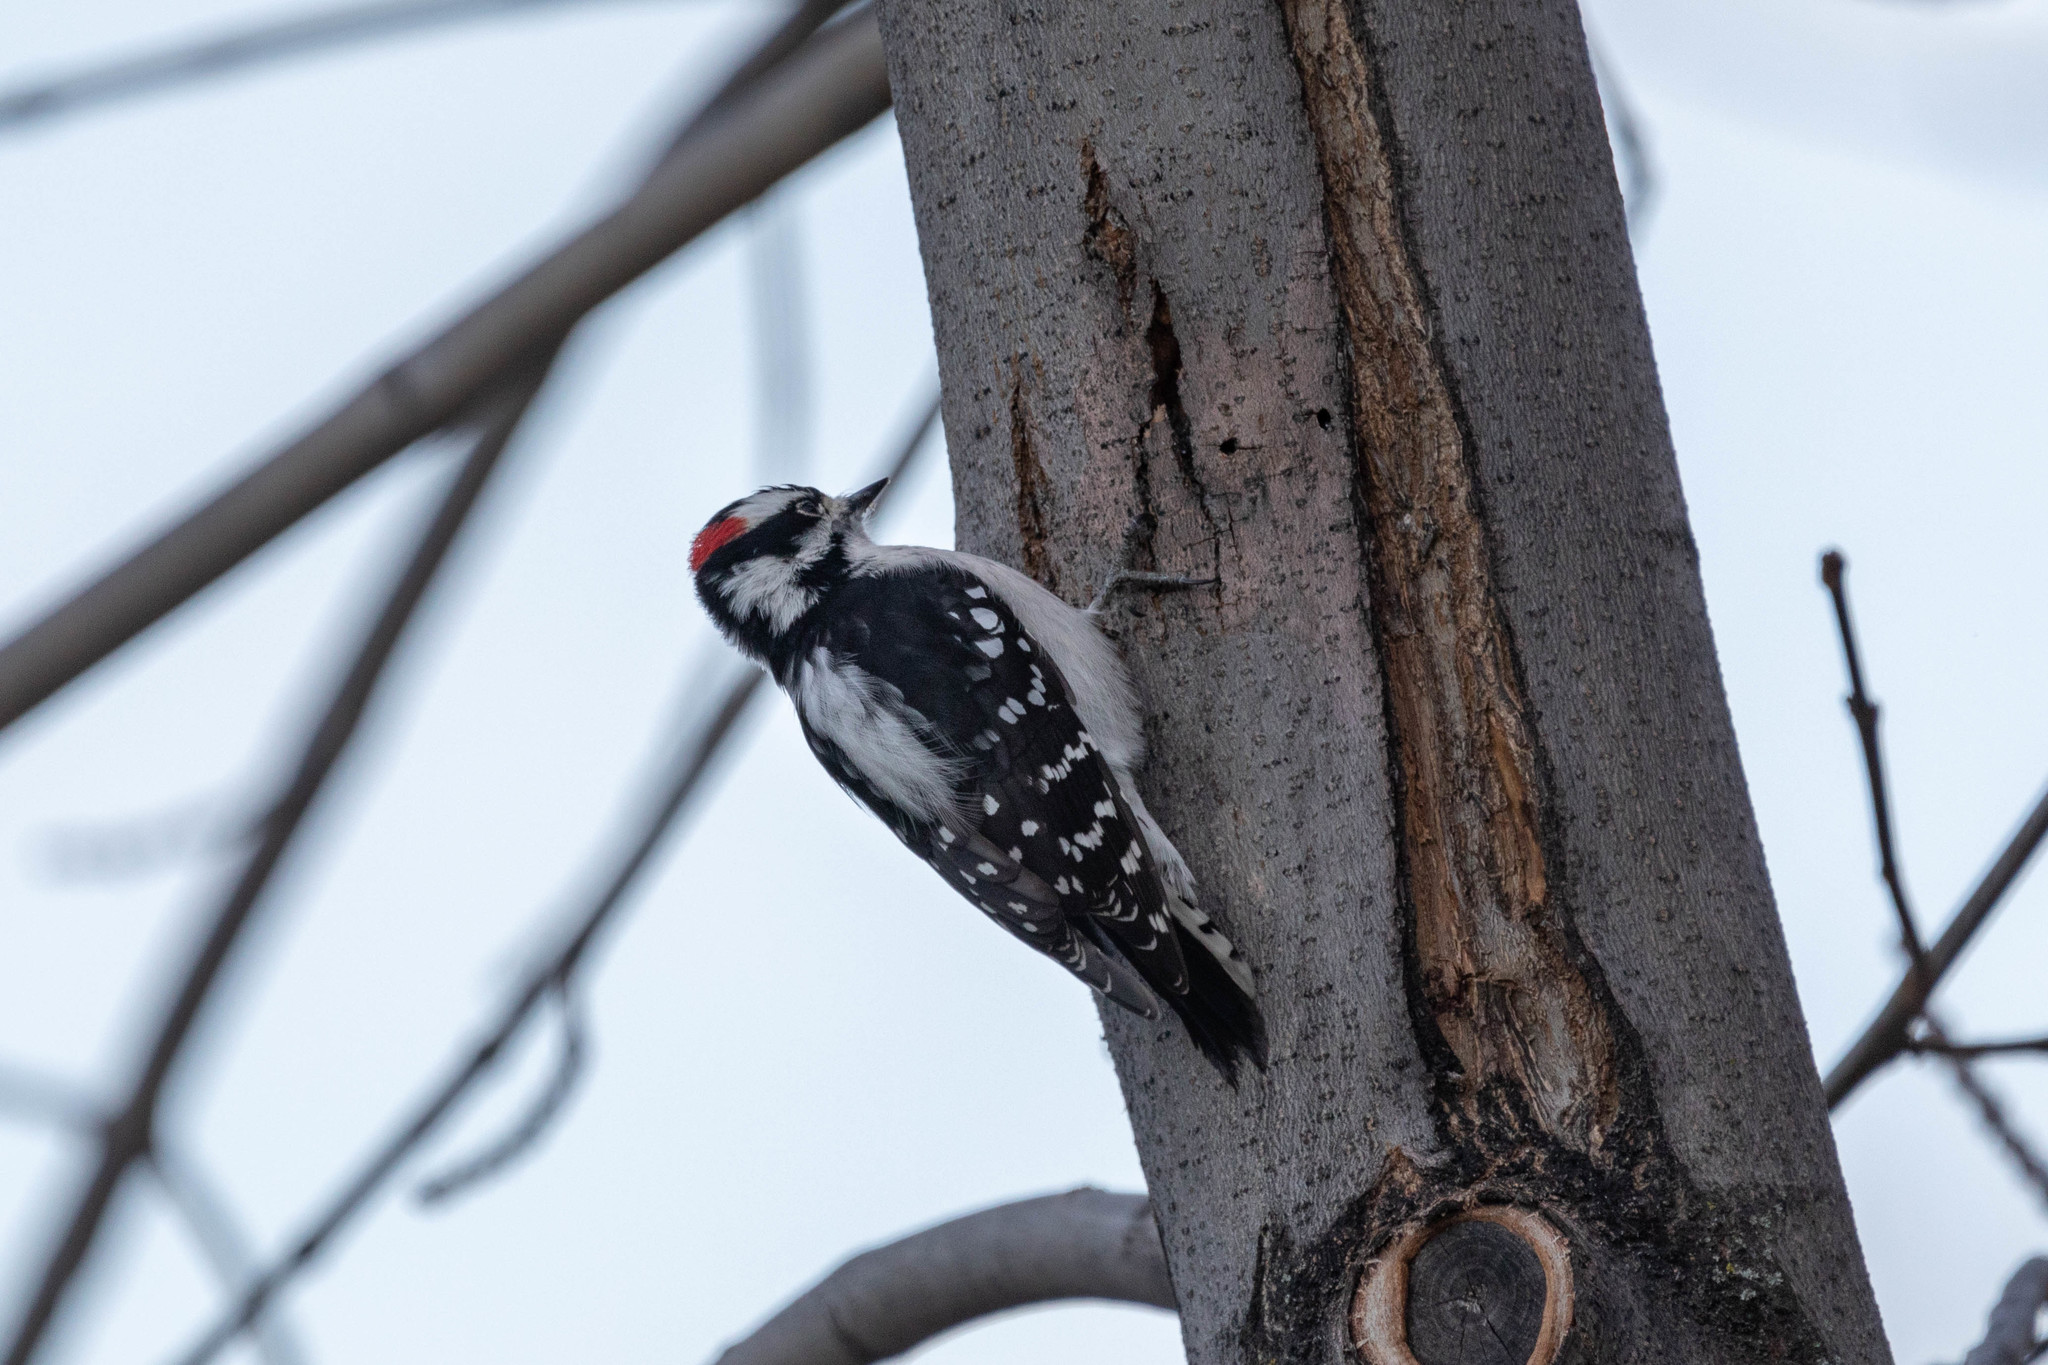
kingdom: Animalia
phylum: Chordata
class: Aves
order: Piciformes
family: Picidae
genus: Dryobates
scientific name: Dryobates pubescens
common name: Downy woodpecker
